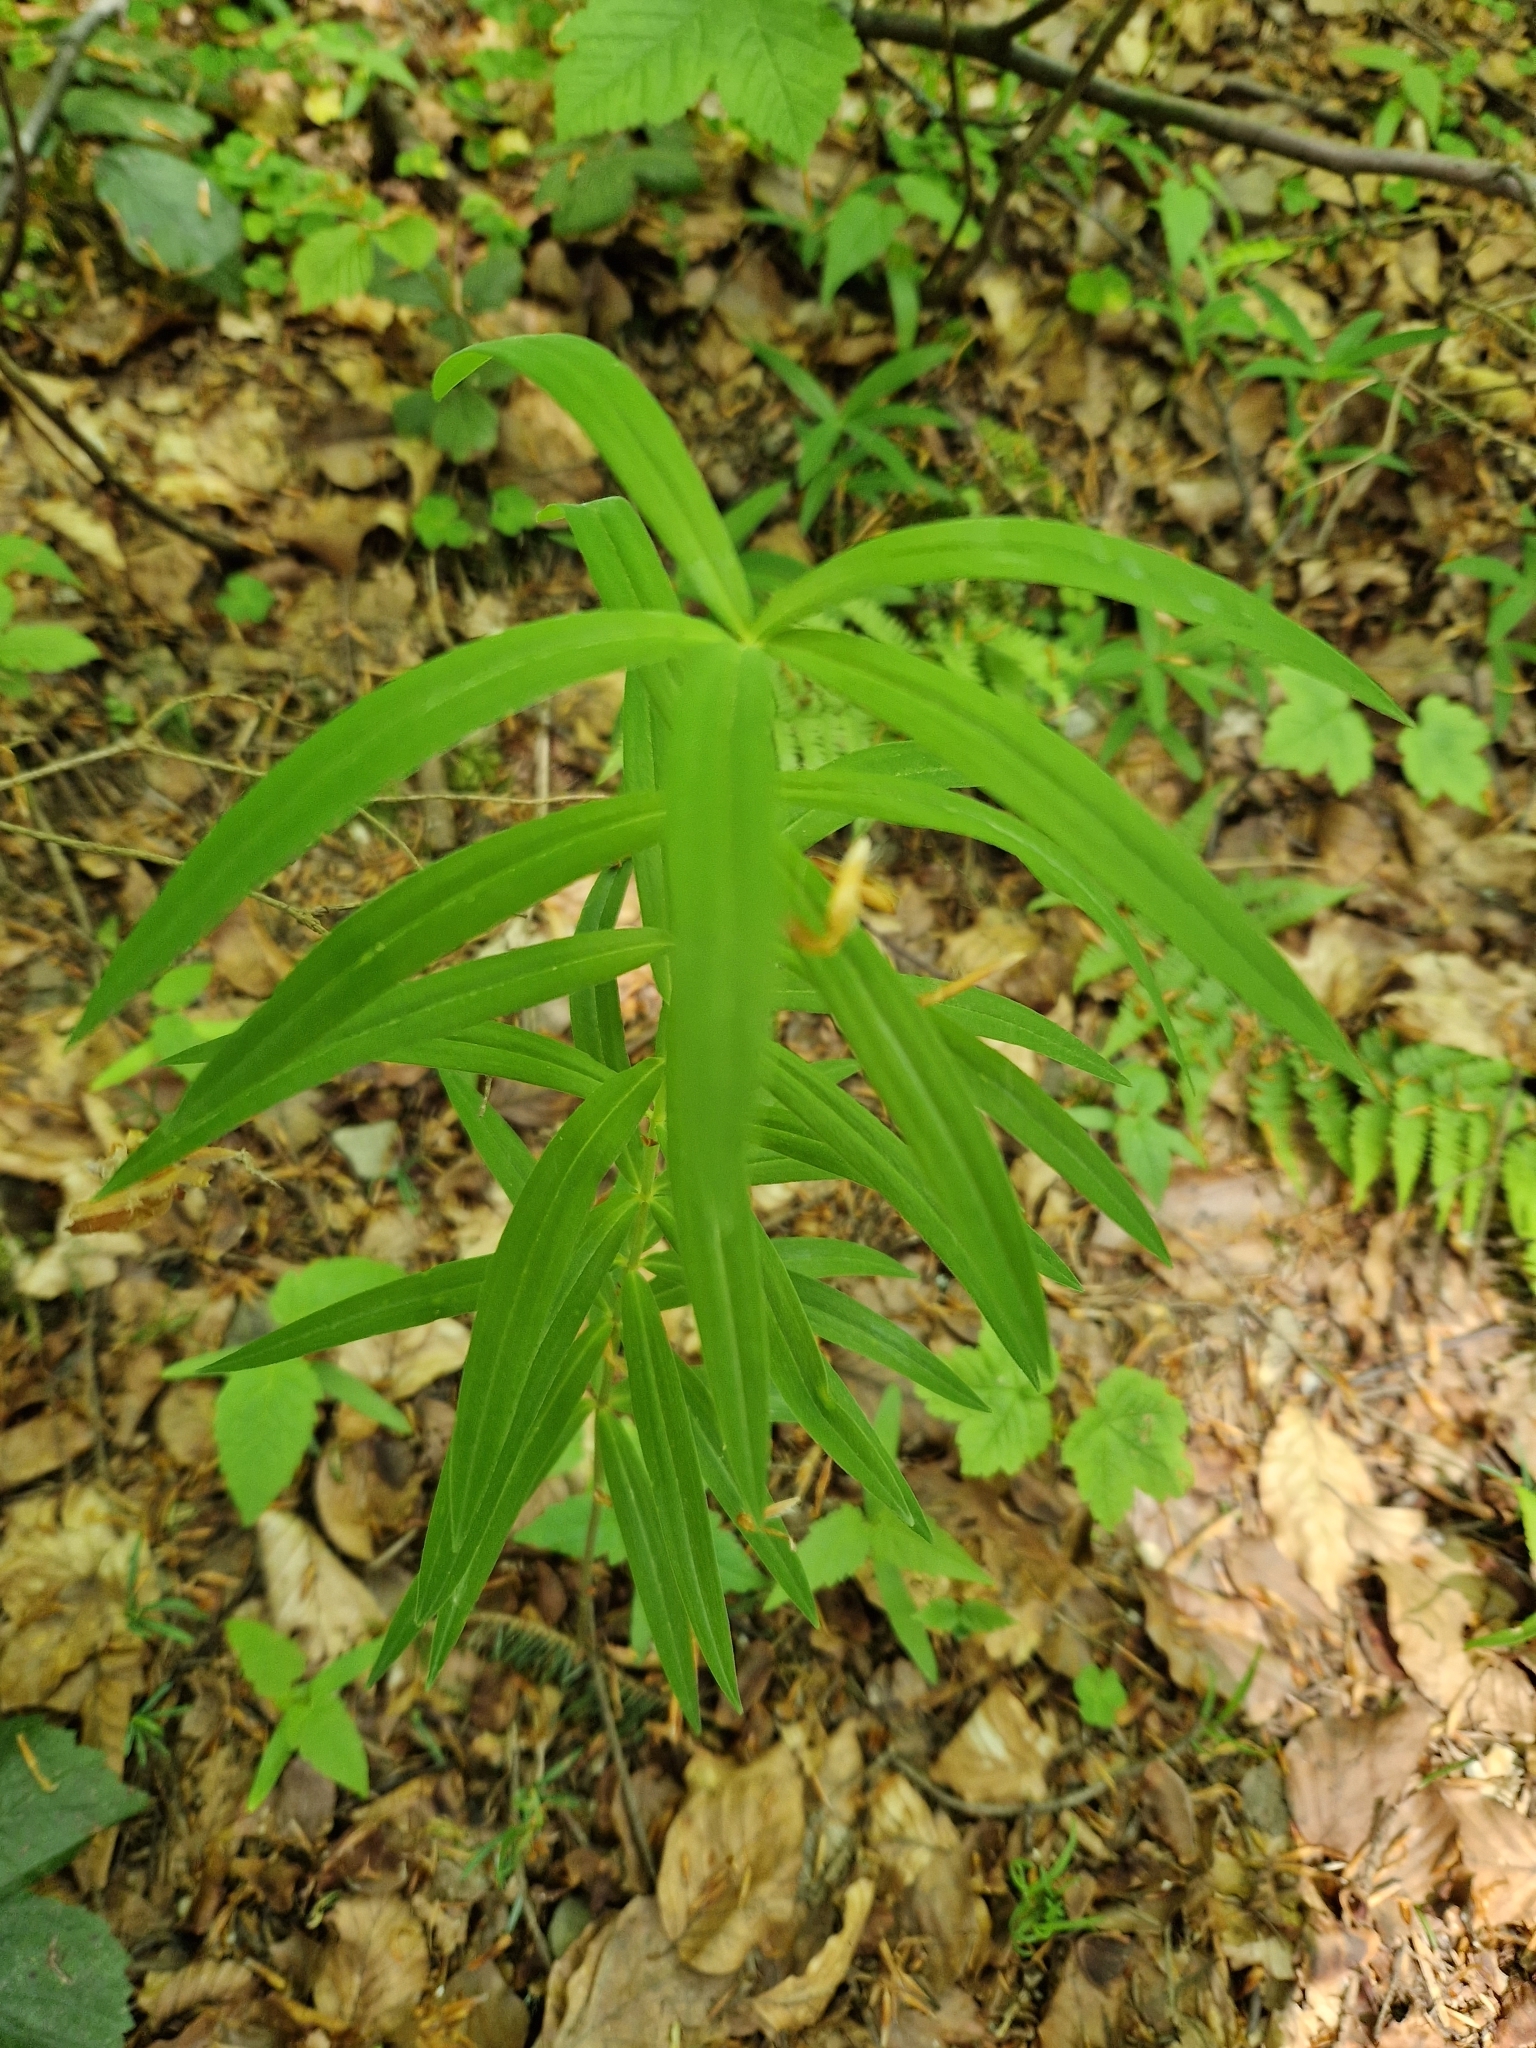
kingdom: Plantae
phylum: Tracheophyta
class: Liliopsida
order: Asparagales
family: Asparagaceae
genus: Polygonatum
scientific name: Polygonatum verticillatum
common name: Whorled solomon's-seal
